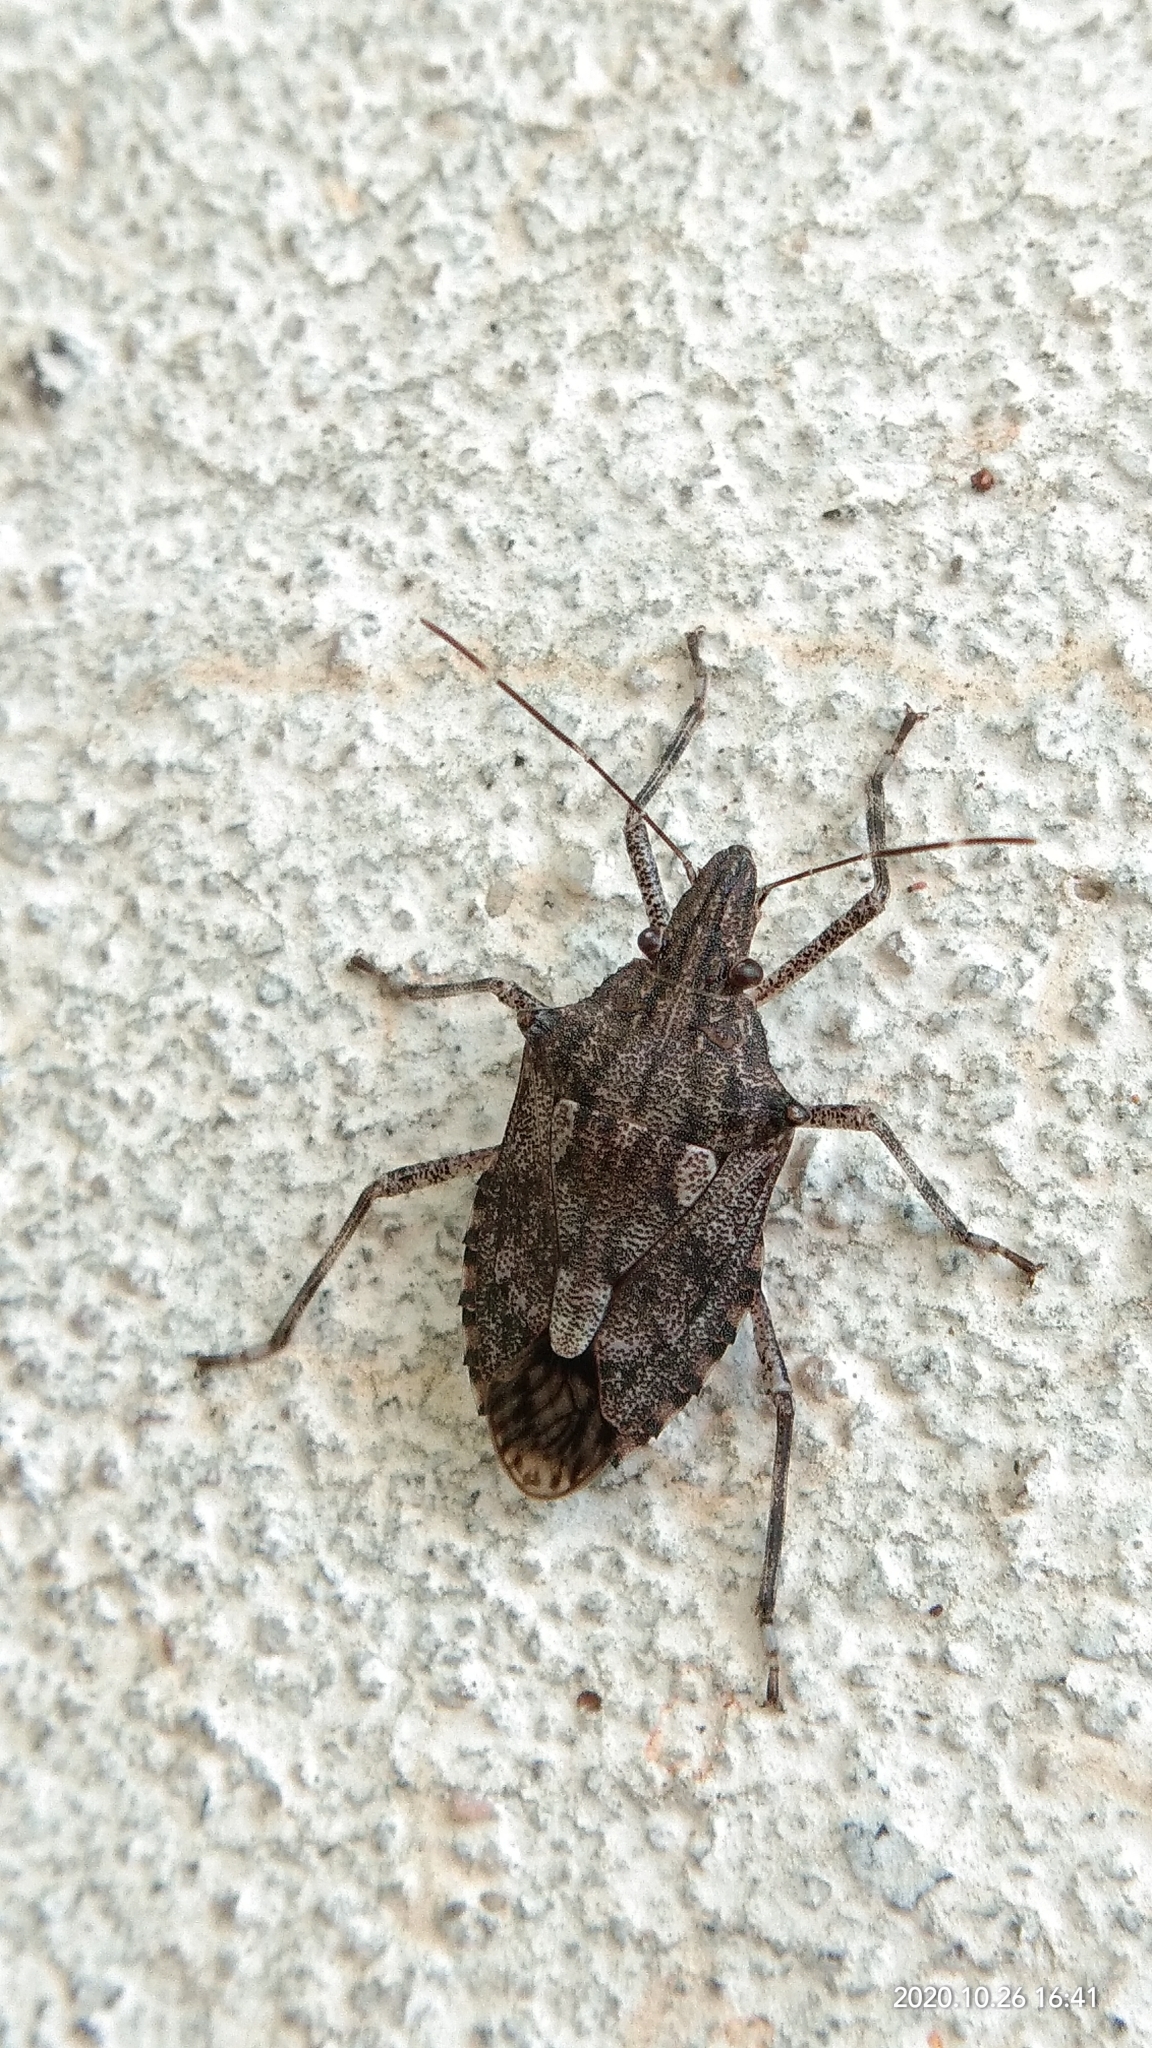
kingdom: Animalia
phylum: Arthropoda
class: Insecta
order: Hemiptera
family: Pentatomidae
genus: Eupaleopada
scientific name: Eupaleopada concinna
